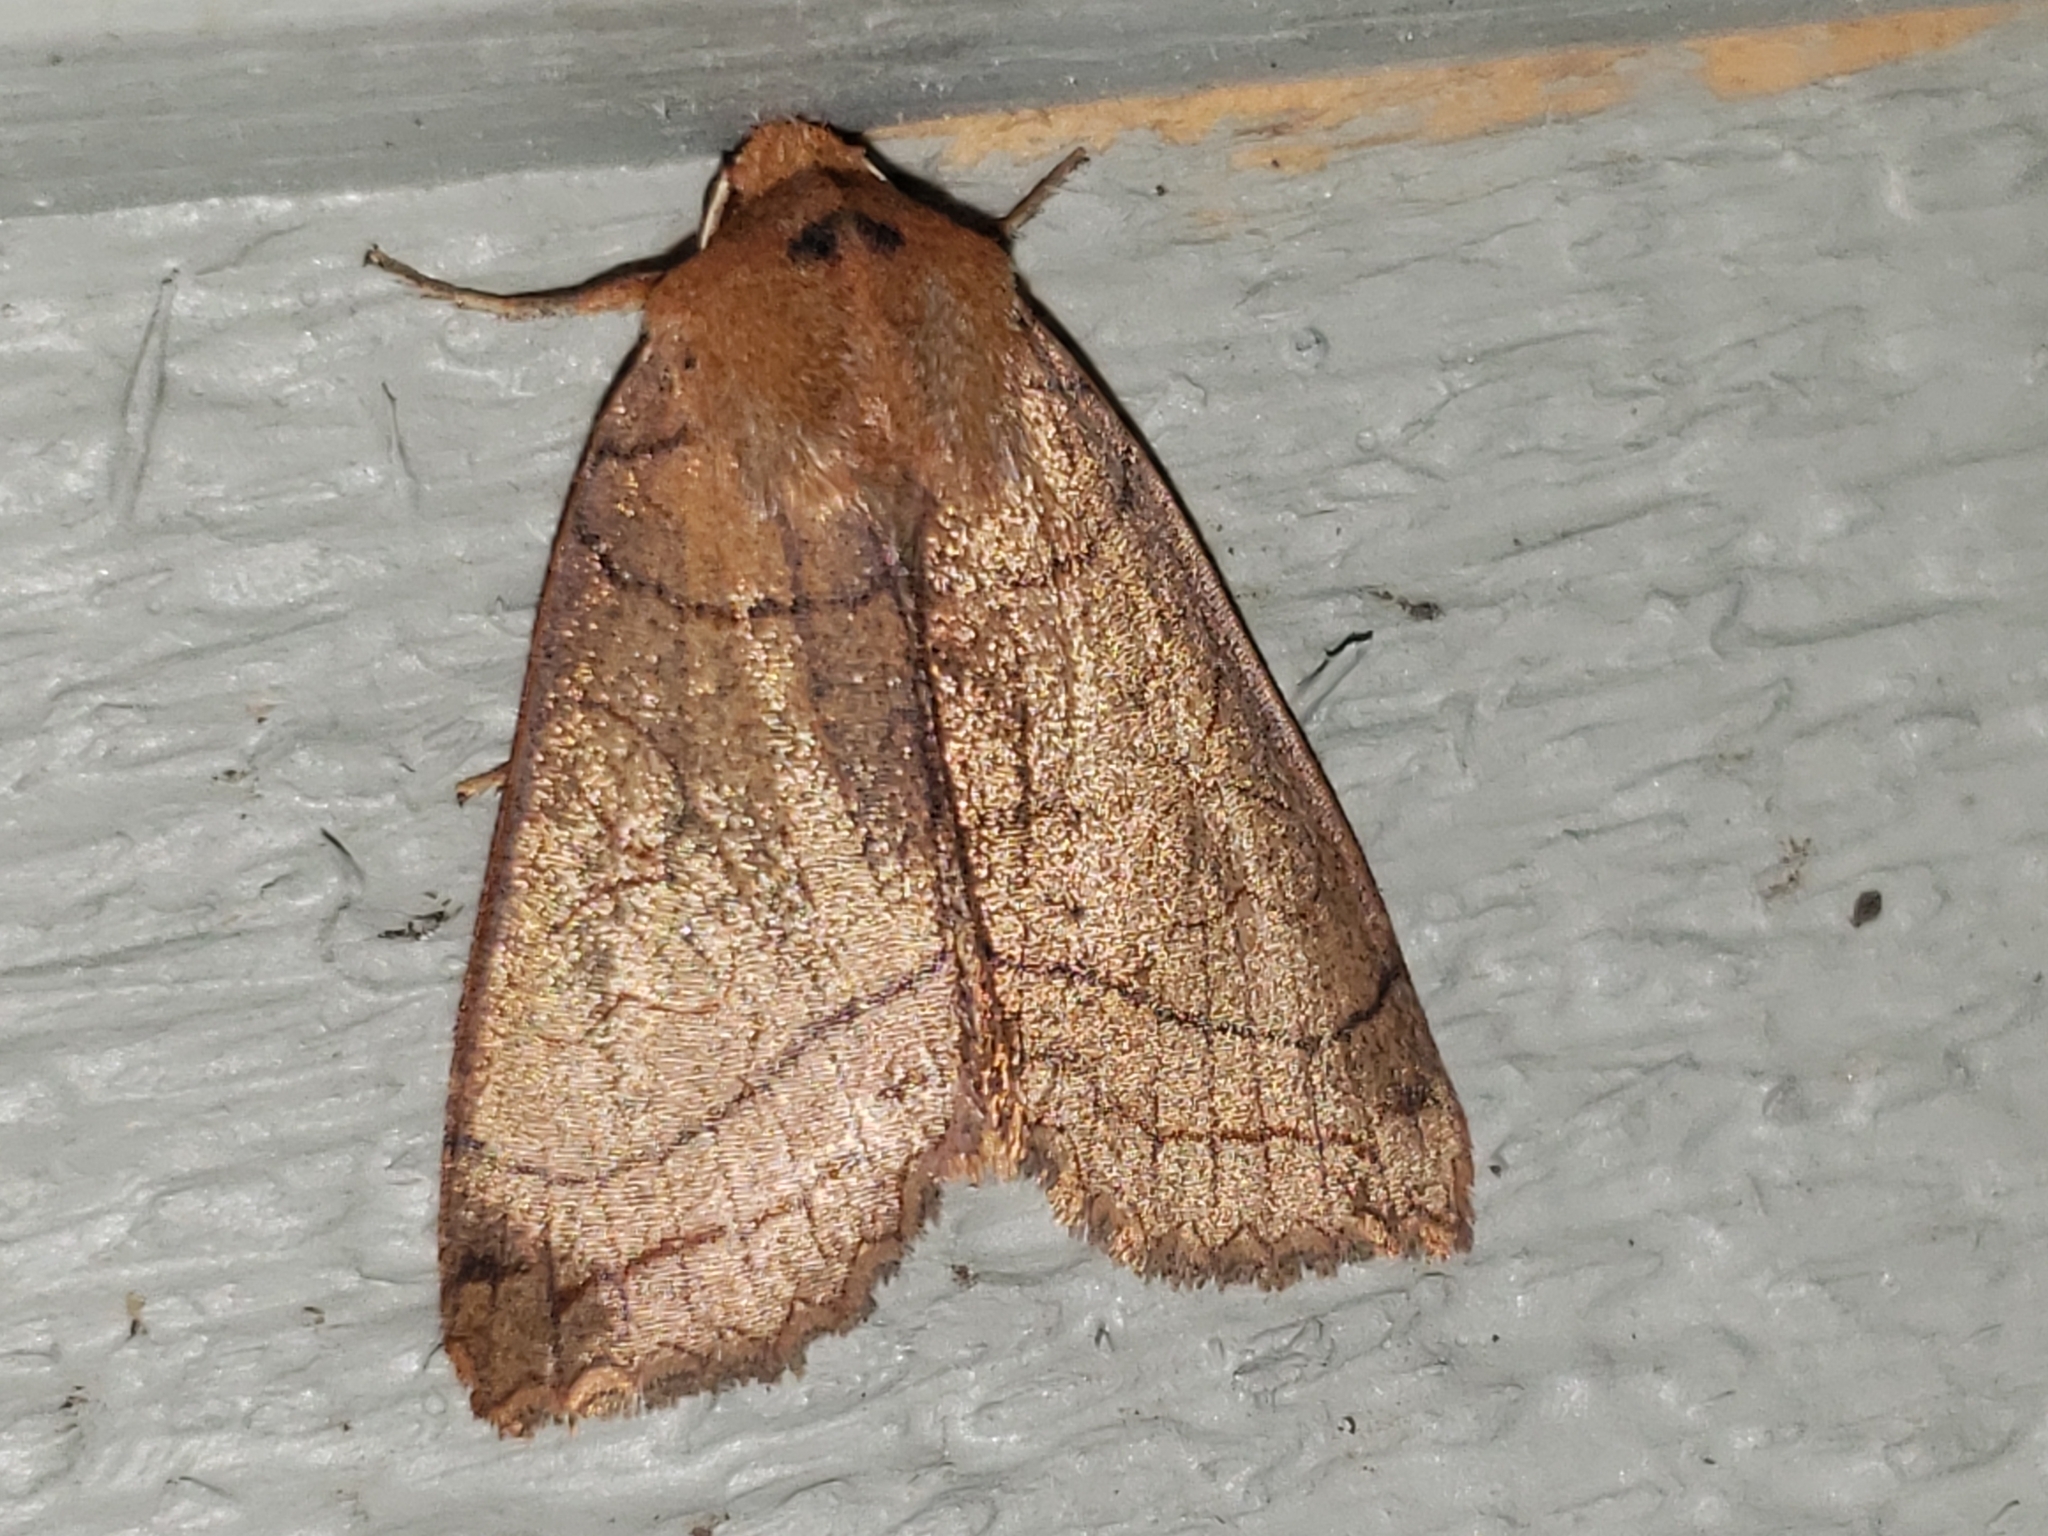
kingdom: Animalia
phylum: Arthropoda
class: Insecta
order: Lepidoptera
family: Noctuidae
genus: Metaxaglaea
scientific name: Metaxaglaea inulta
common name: Unsated sallow
